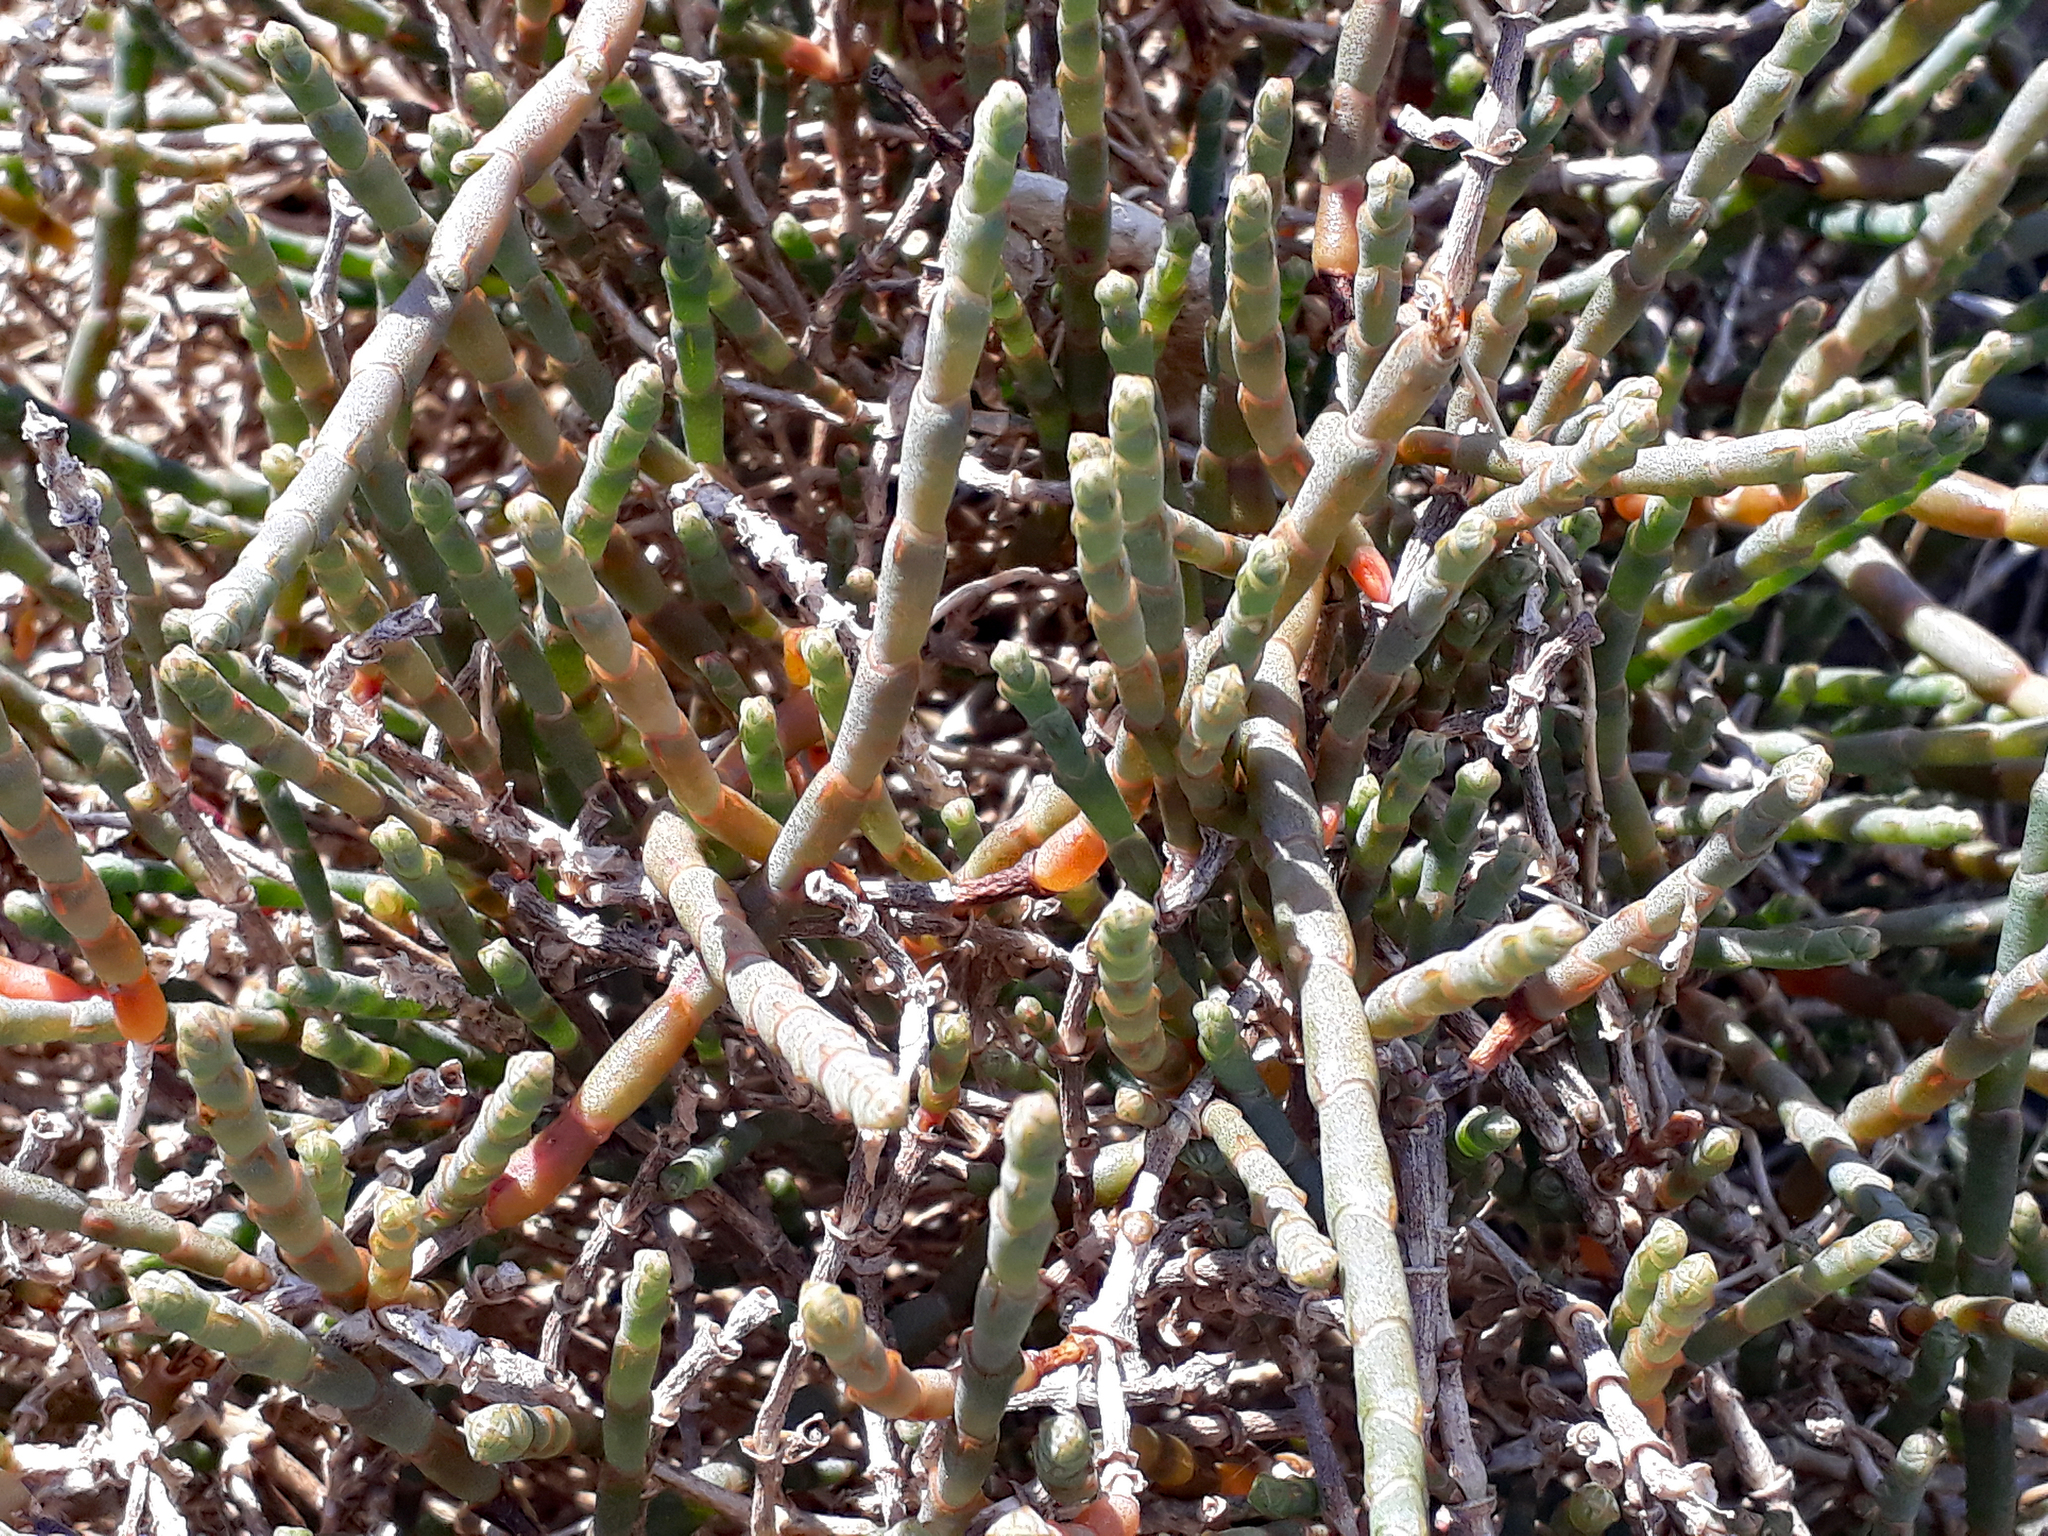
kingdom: Plantae
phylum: Tracheophyta
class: Magnoliopsida
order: Caryophyllales
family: Amaranthaceae
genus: Salicornia
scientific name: Salicornia quinqueflora
